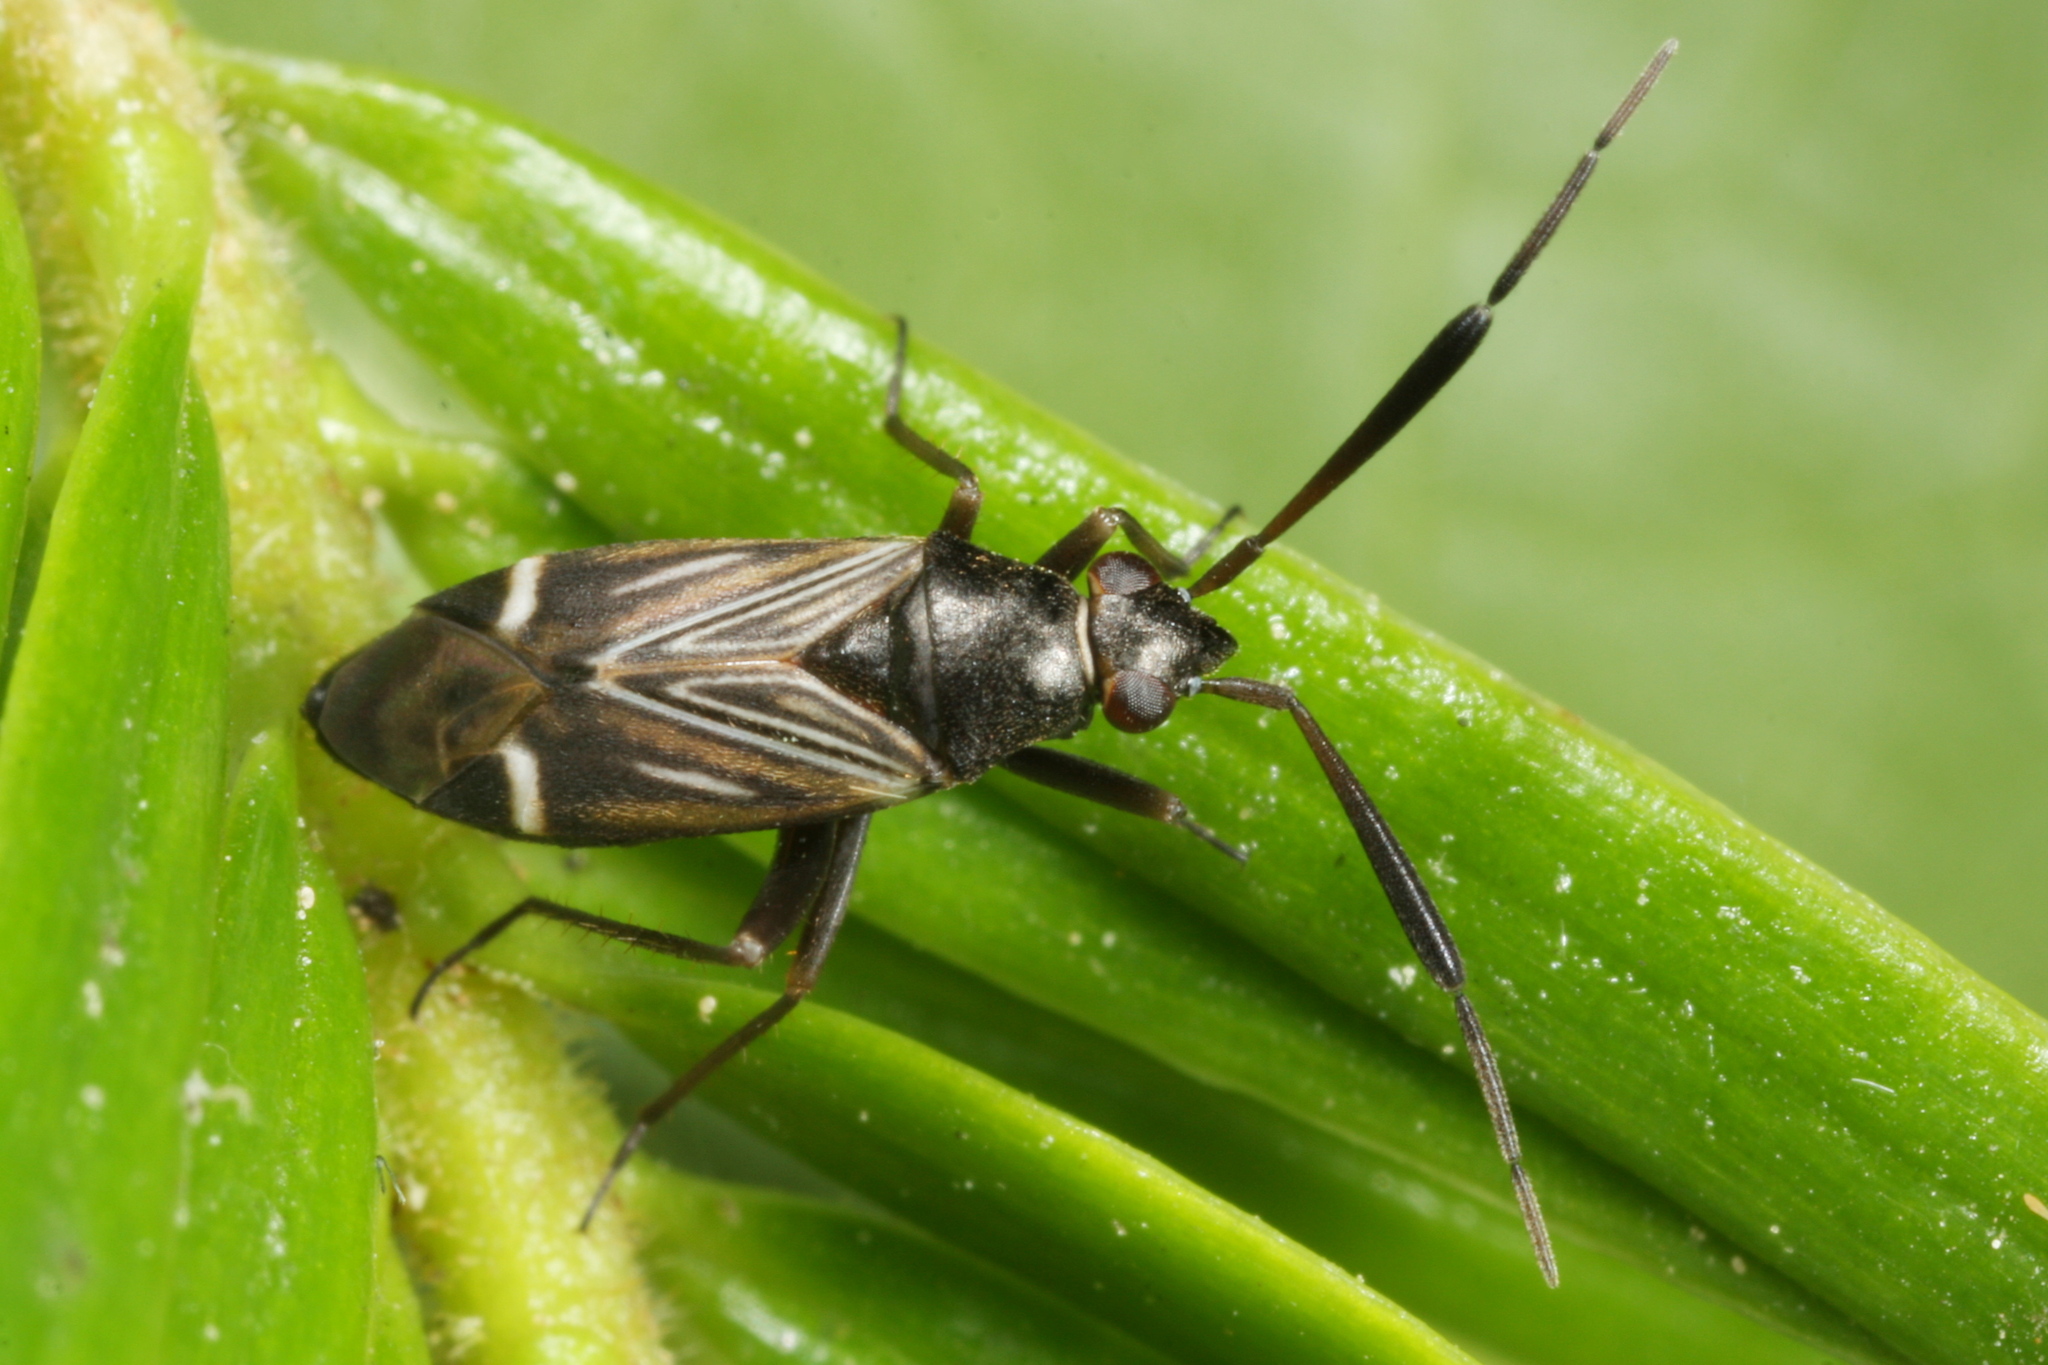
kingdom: Animalia
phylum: Arthropoda
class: Insecta
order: Hemiptera
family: Miridae
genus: Cremnocephalus
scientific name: Cremnocephalus alpestris
